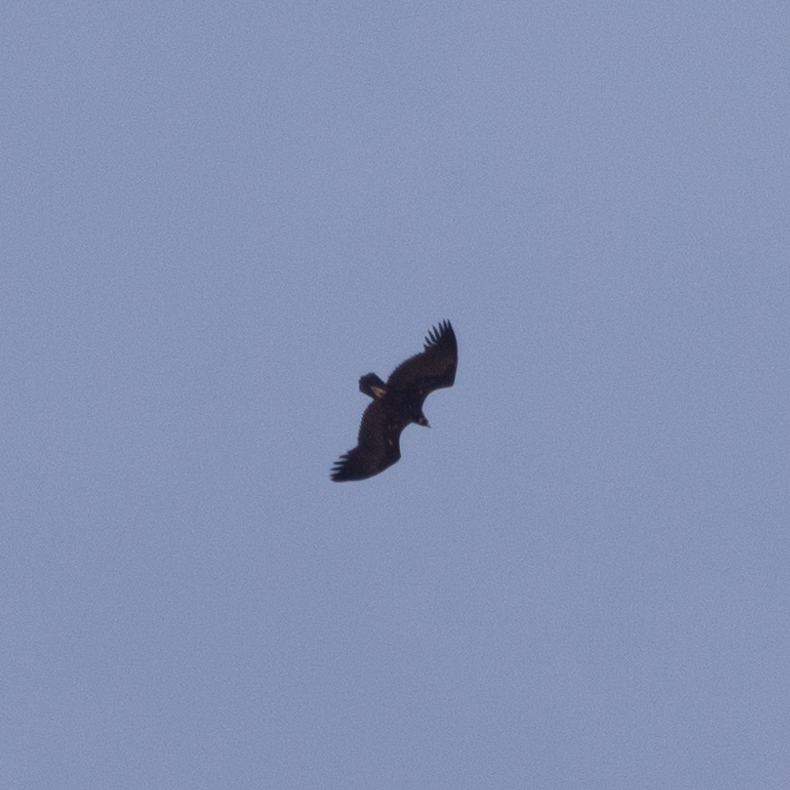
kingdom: Animalia
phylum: Chordata
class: Aves
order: Accipitriformes
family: Accipitridae
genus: Aegypius
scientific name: Aegypius monachus
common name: Cinereous vulture
